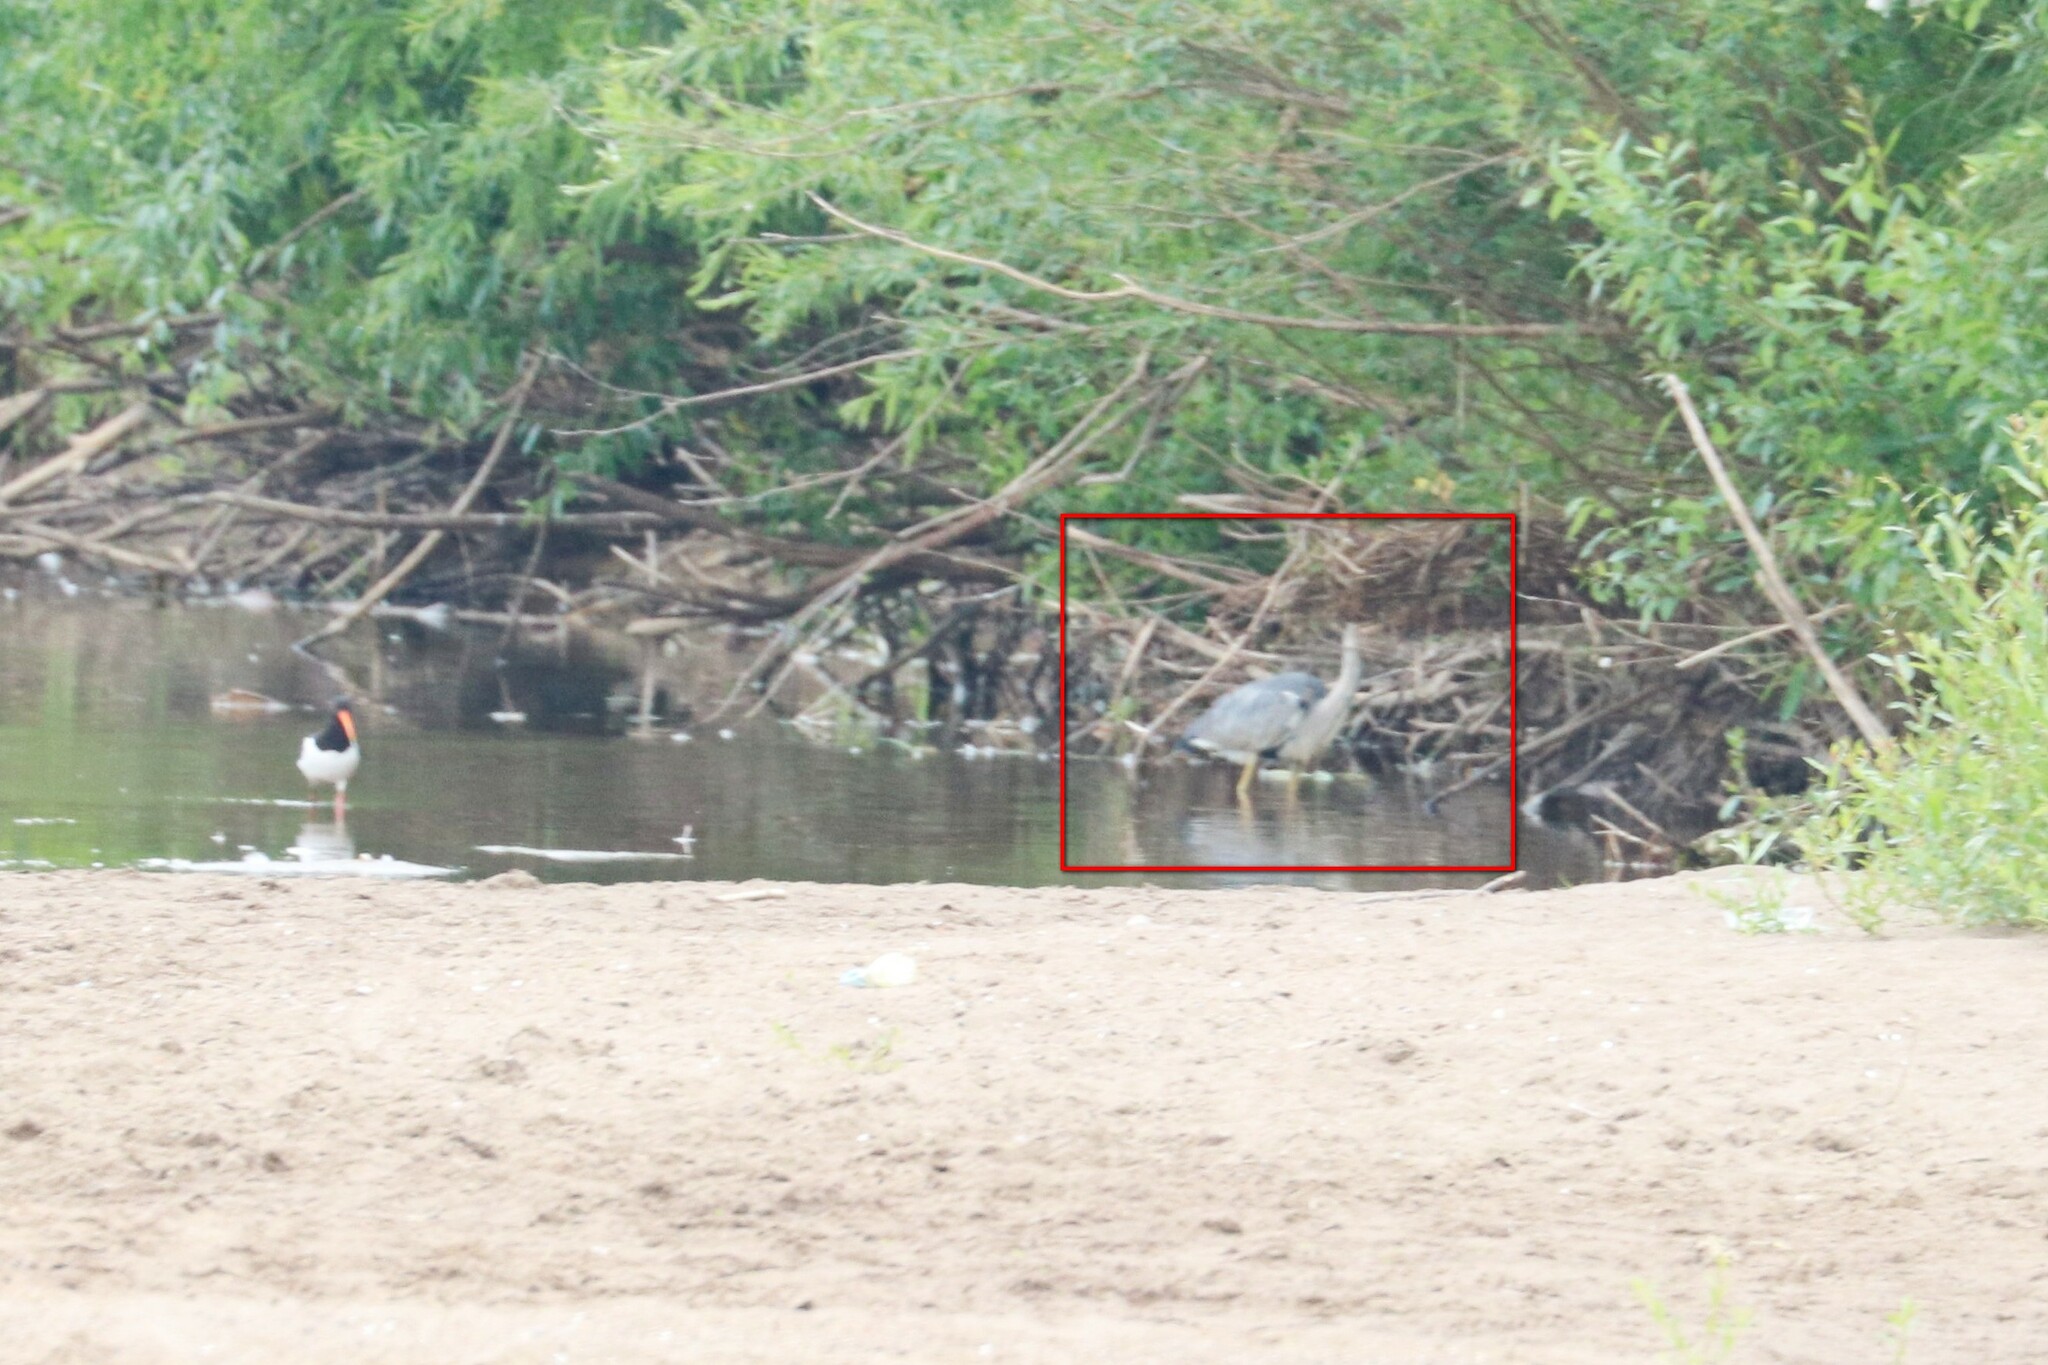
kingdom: Animalia
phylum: Chordata
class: Aves
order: Pelecaniformes
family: Ardeidae
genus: Ardea
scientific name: Ardea cinerea
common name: Grey heron
